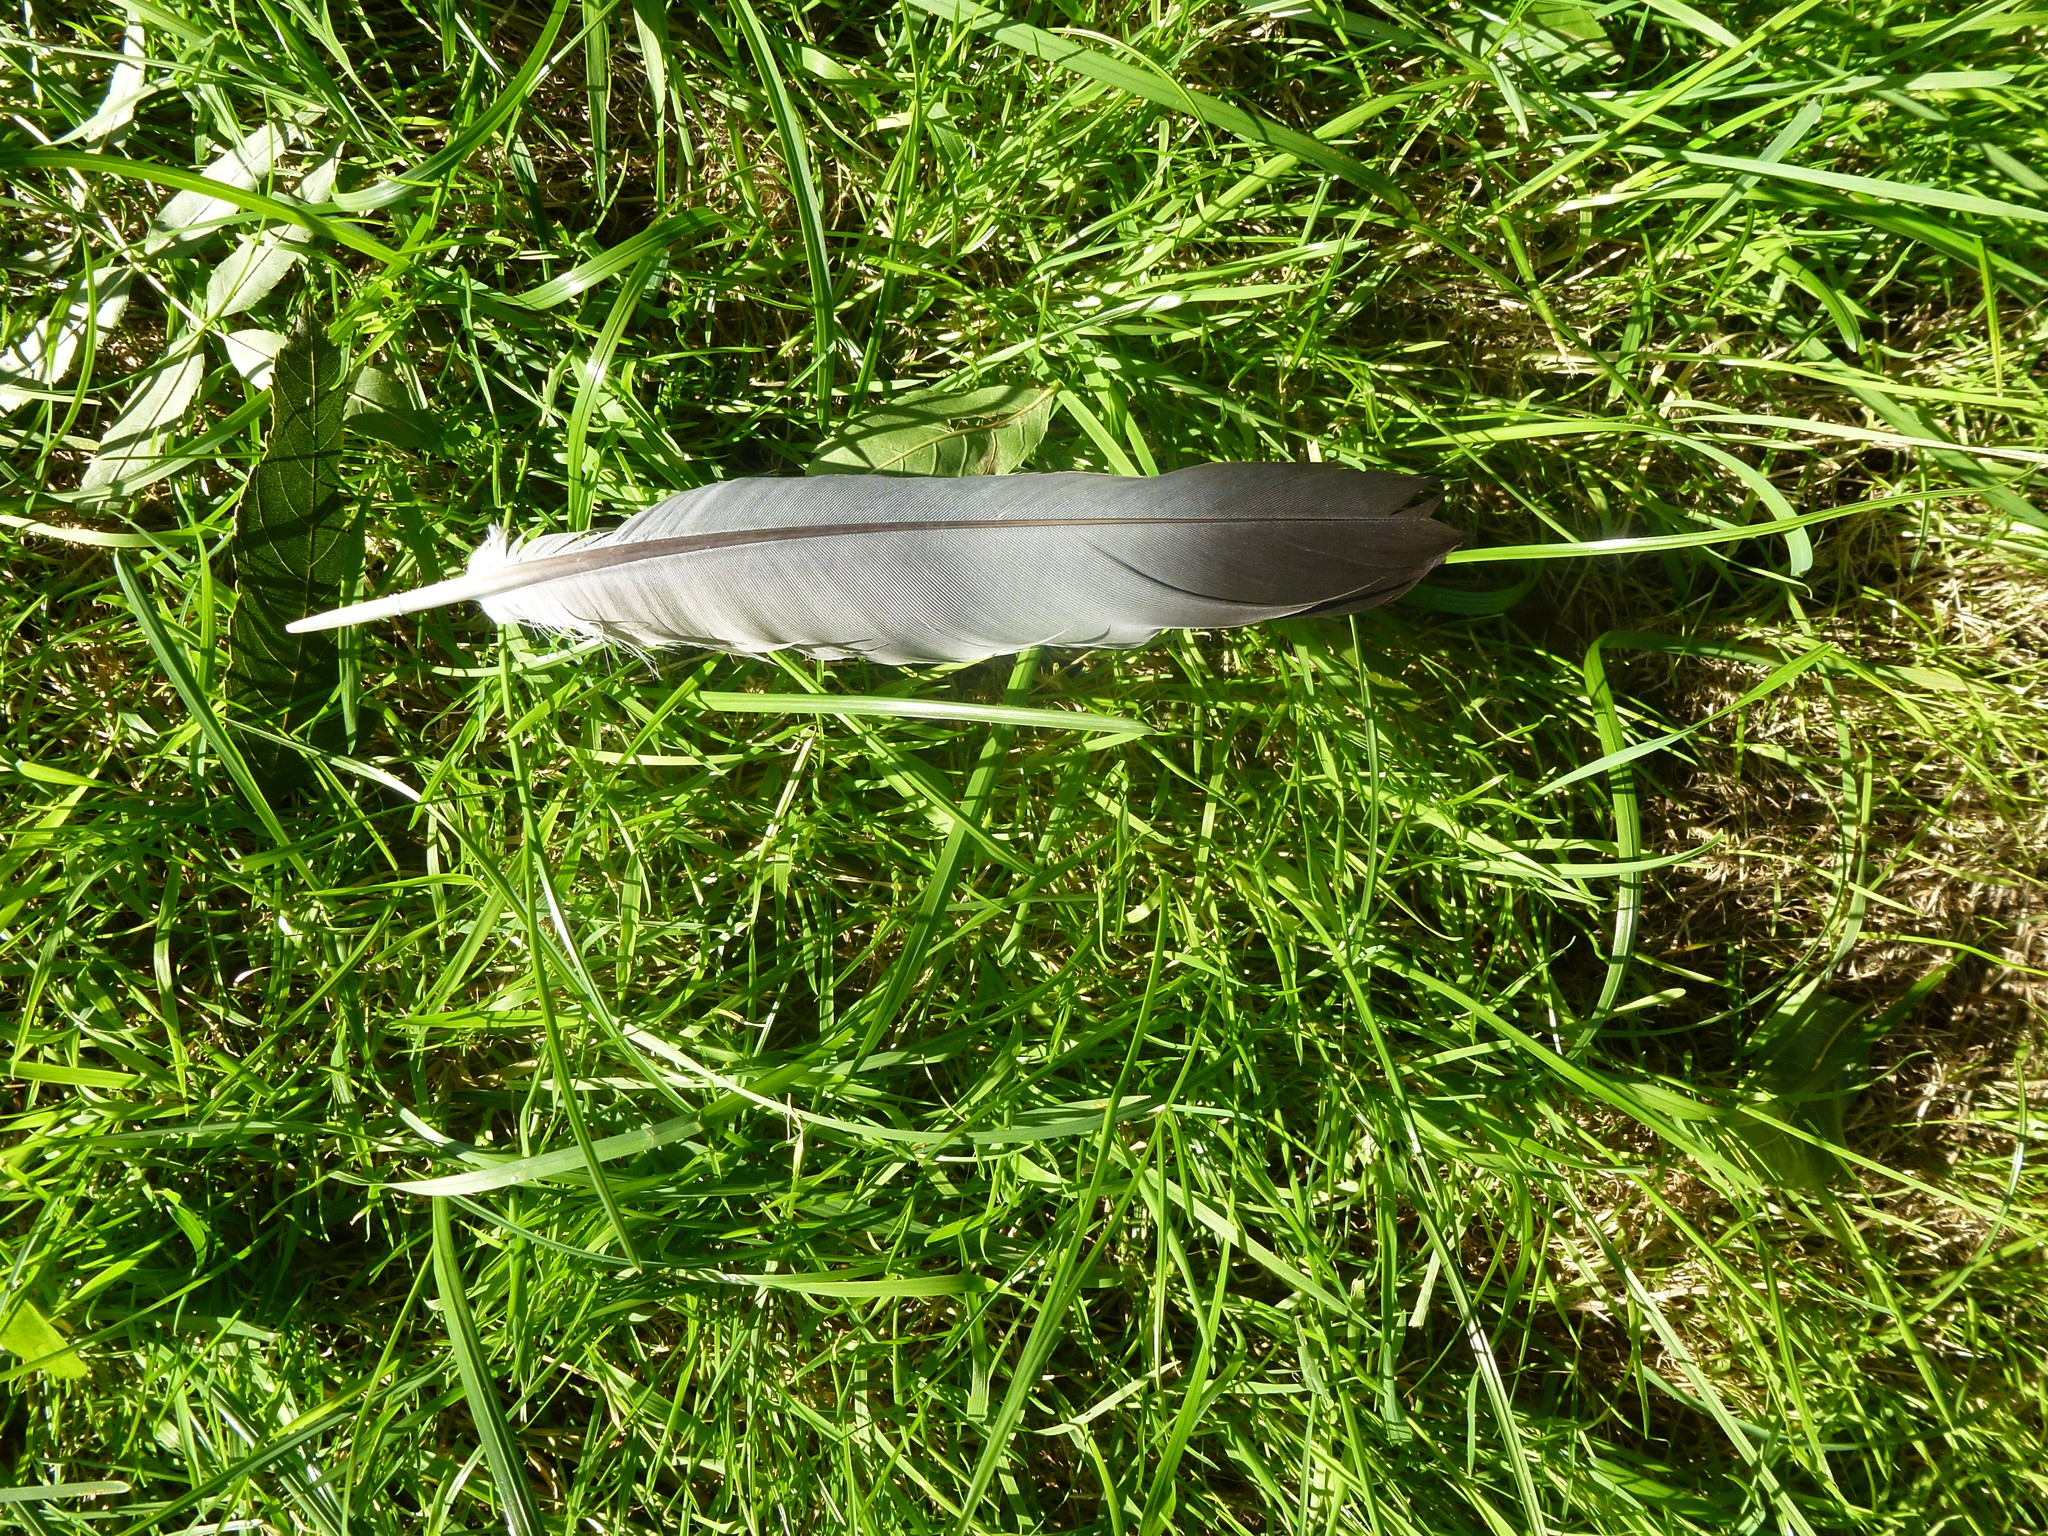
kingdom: Animalia
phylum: Chordata
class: Aves
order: Columbiformes
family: Columbidae
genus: Columba
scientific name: Columba palumbus
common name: Common wood pigeon
